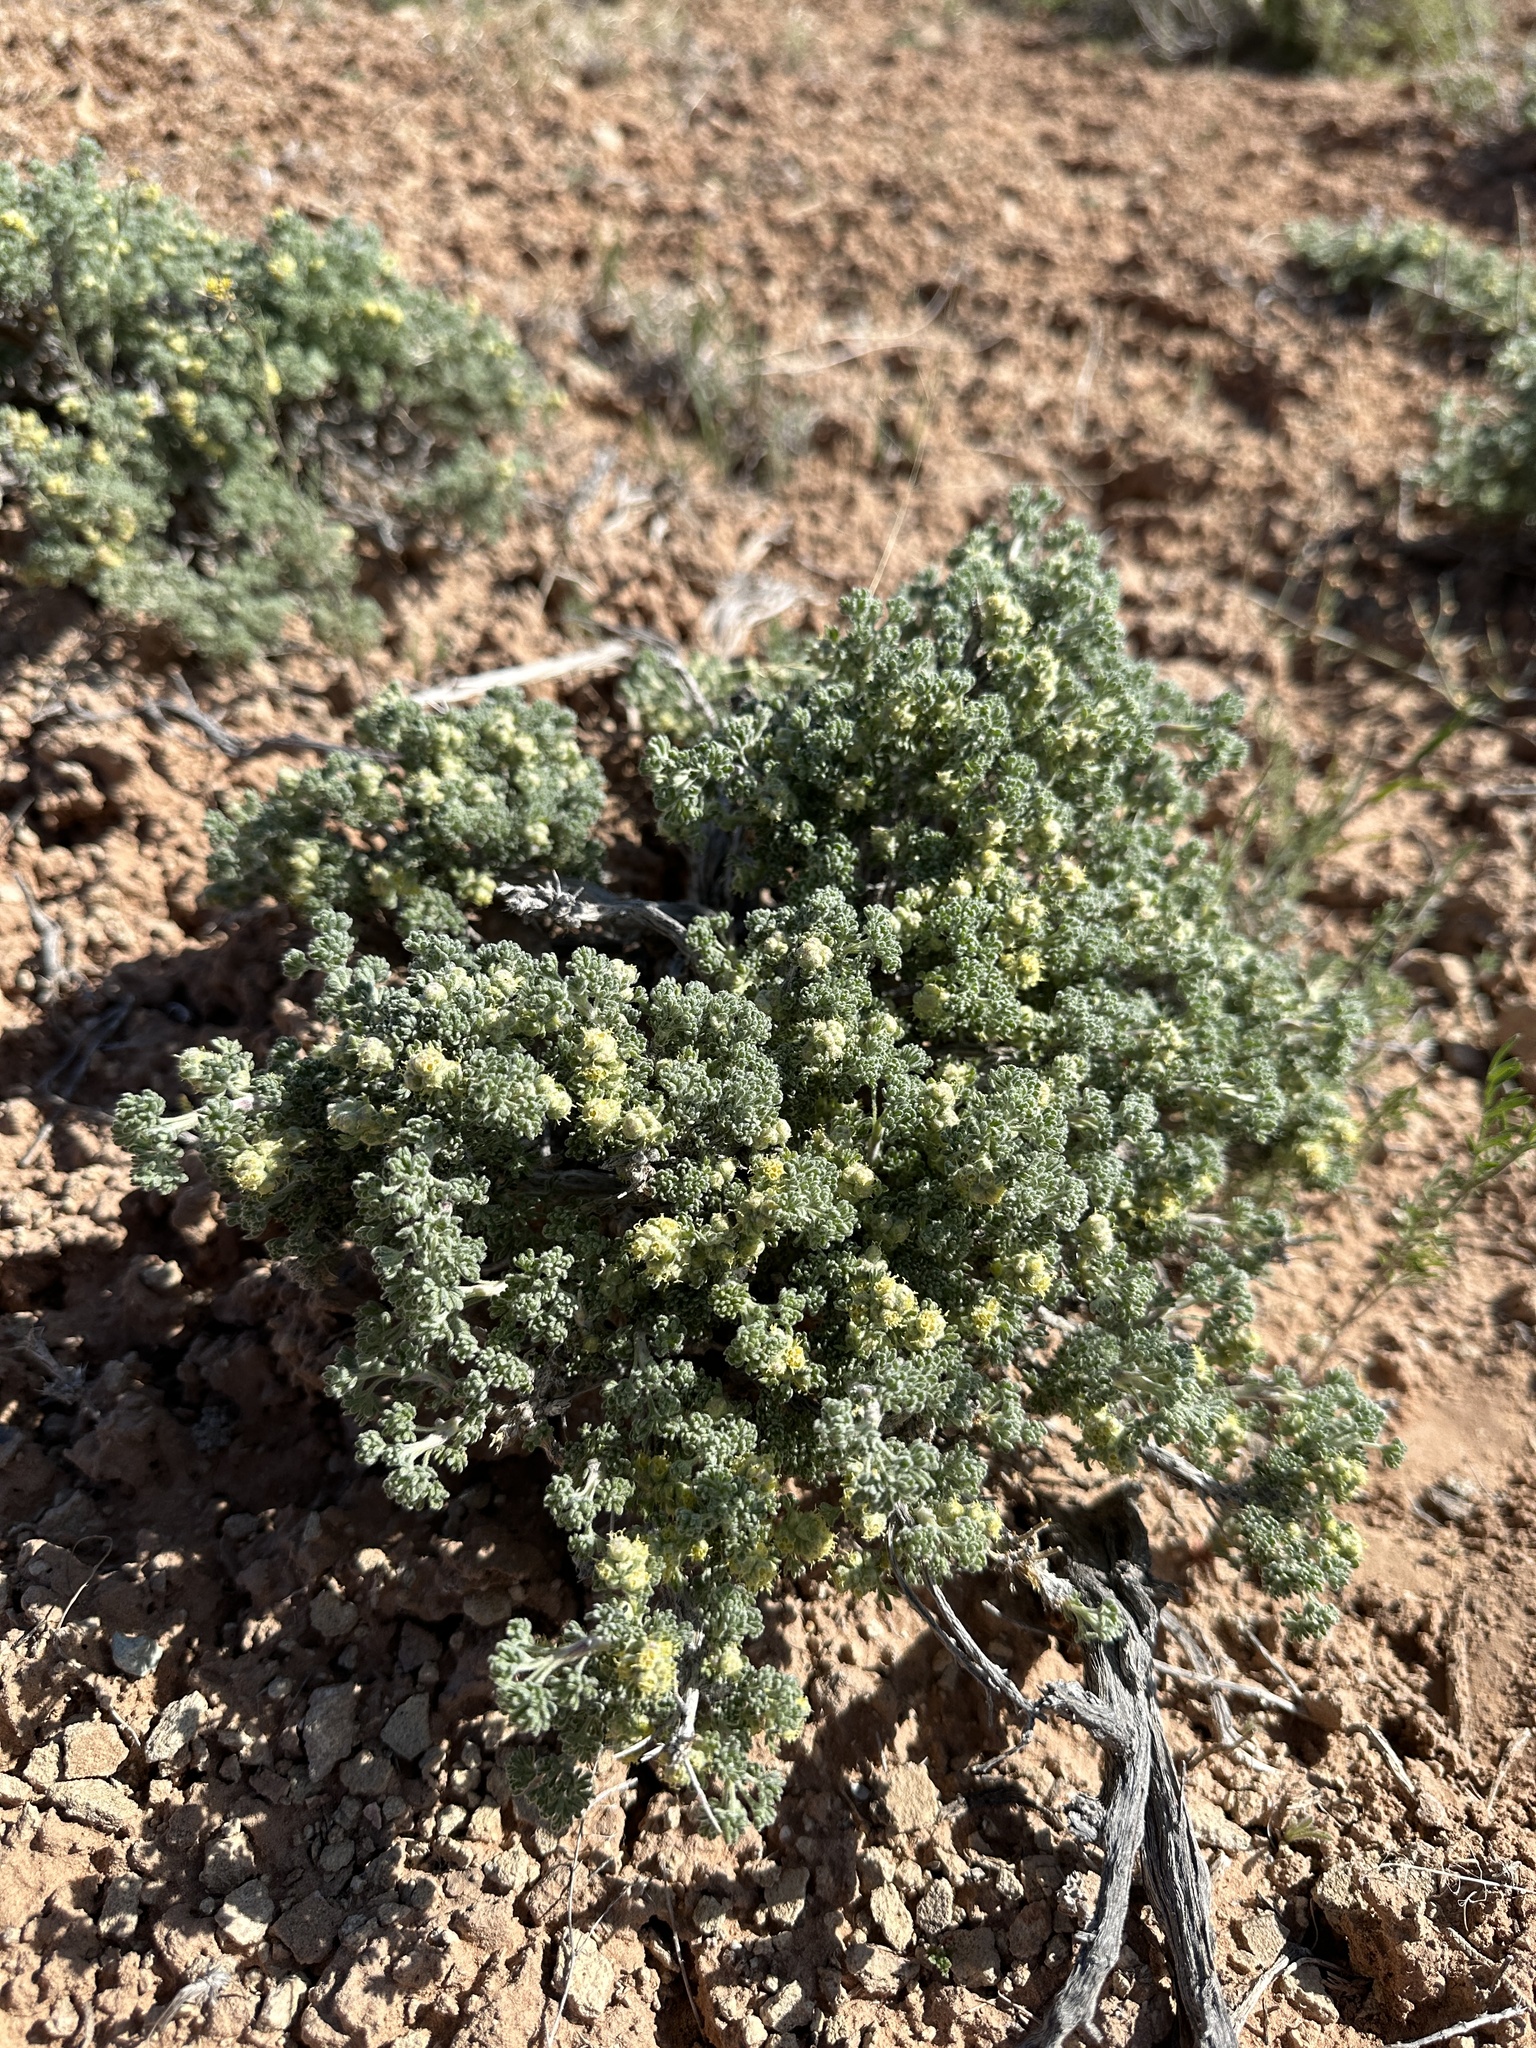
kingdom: Plantae
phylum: Tracheophyta
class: Magnoliopsida
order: Asterales
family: Asteraceae
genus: Artemisia
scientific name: Artemisia spinescens
